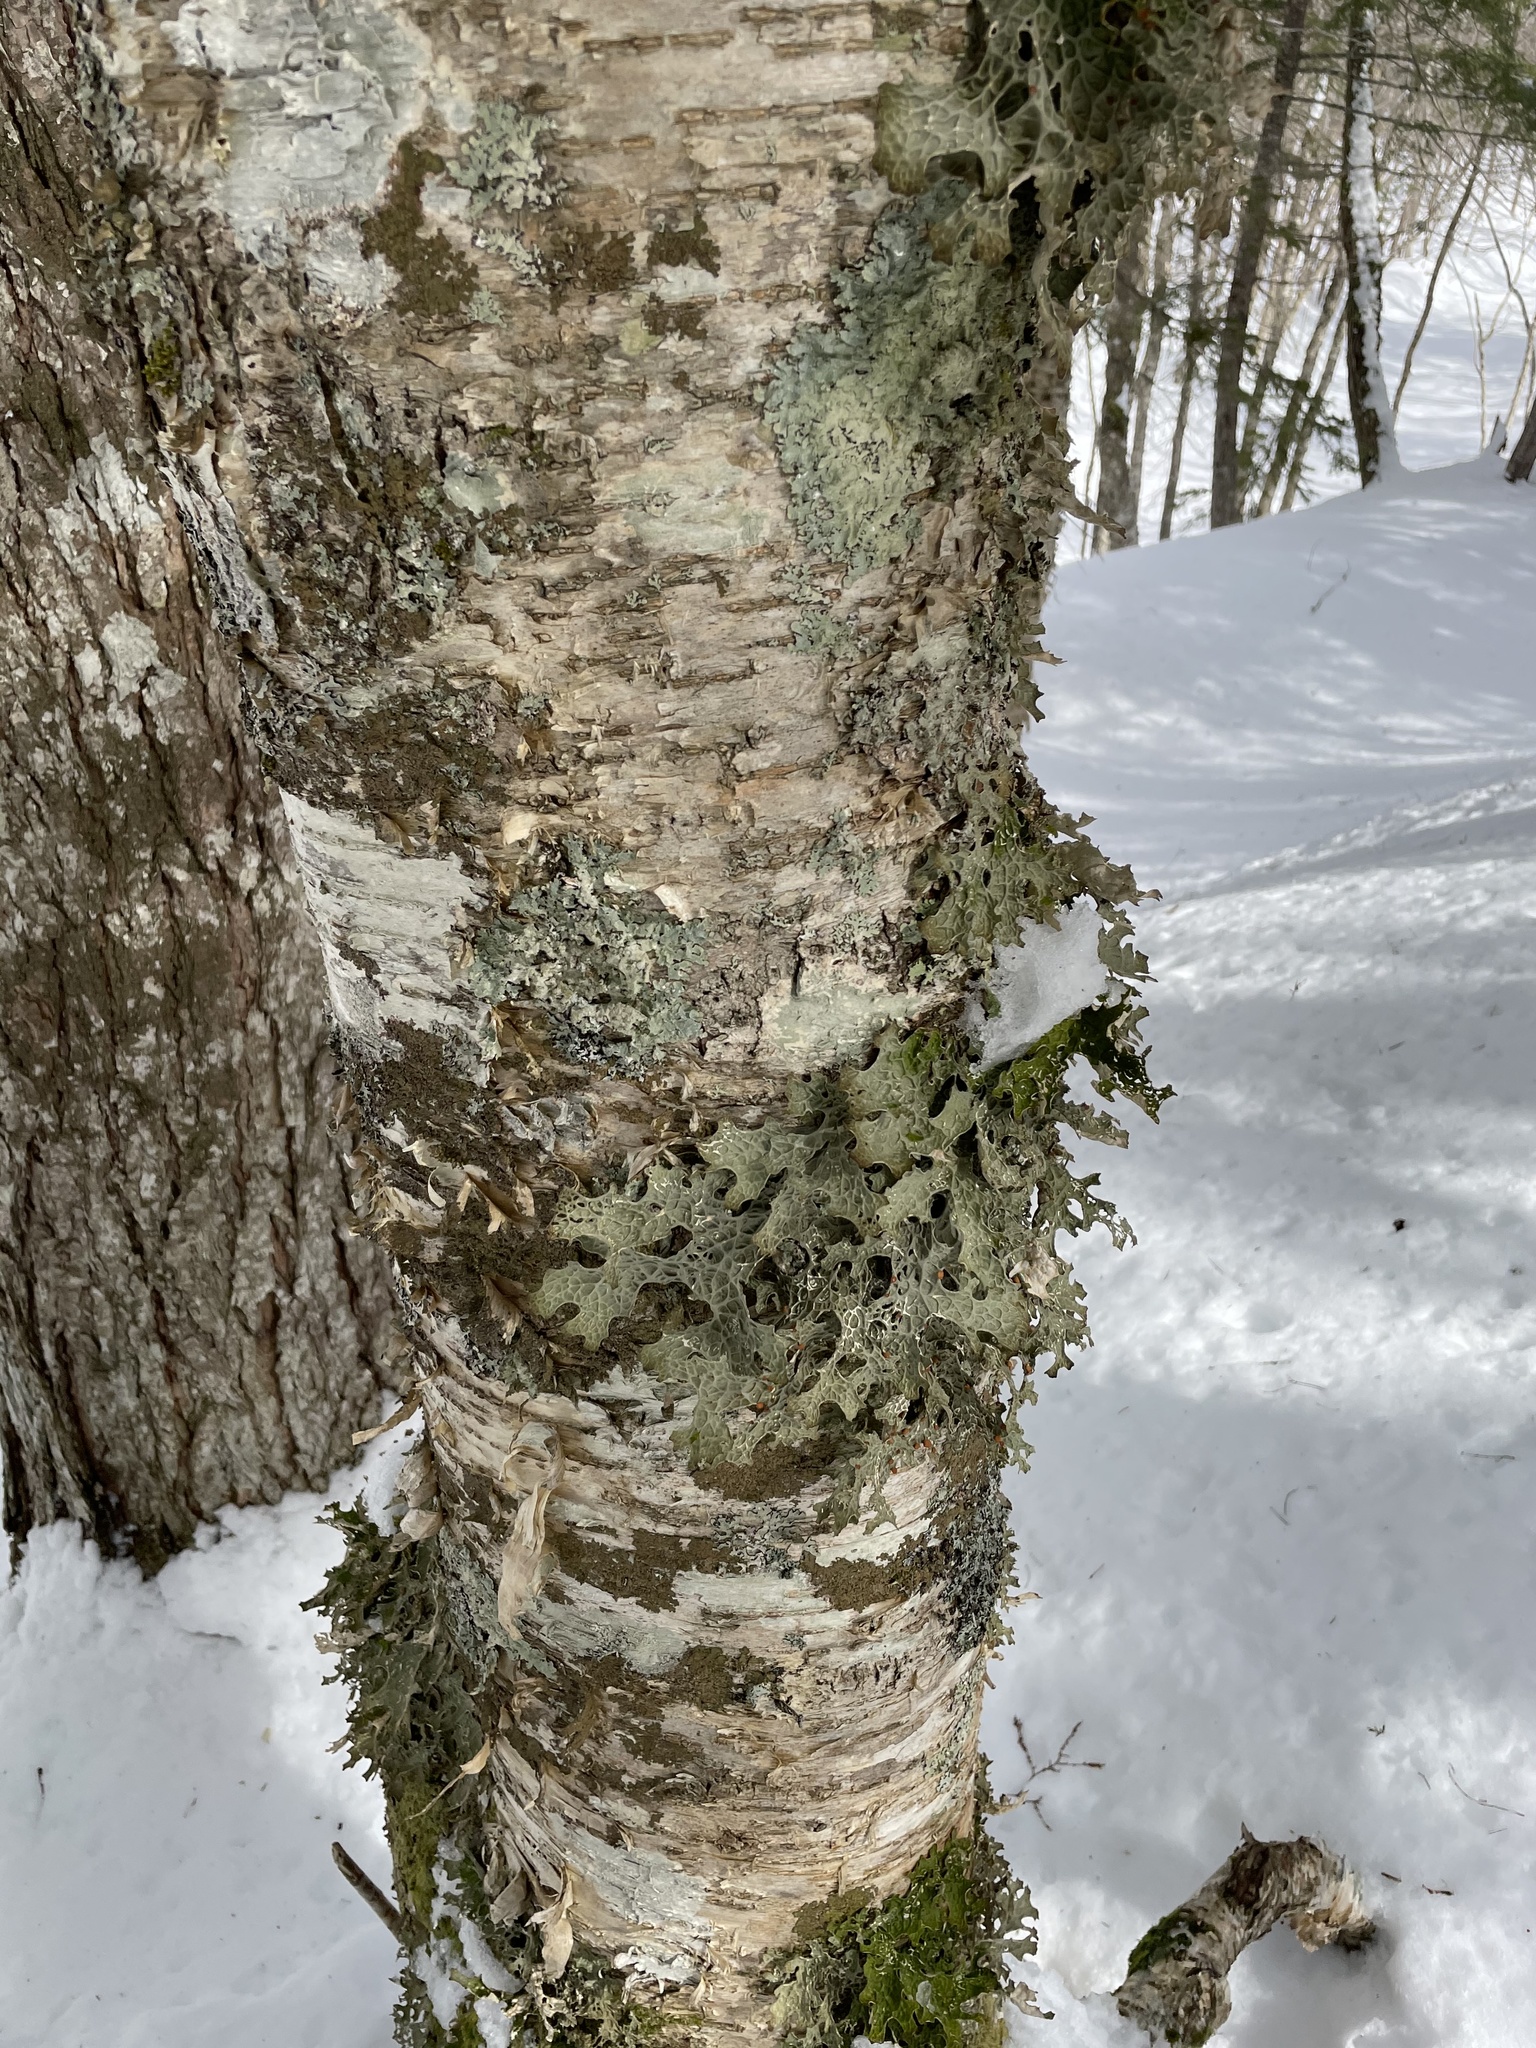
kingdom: Fungi
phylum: Ascomycota
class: Lecanoromycetes
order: Peltigerales
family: Lobariaceae
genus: Lobaria
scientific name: Lobaria pulmonaria
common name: Lungwort
